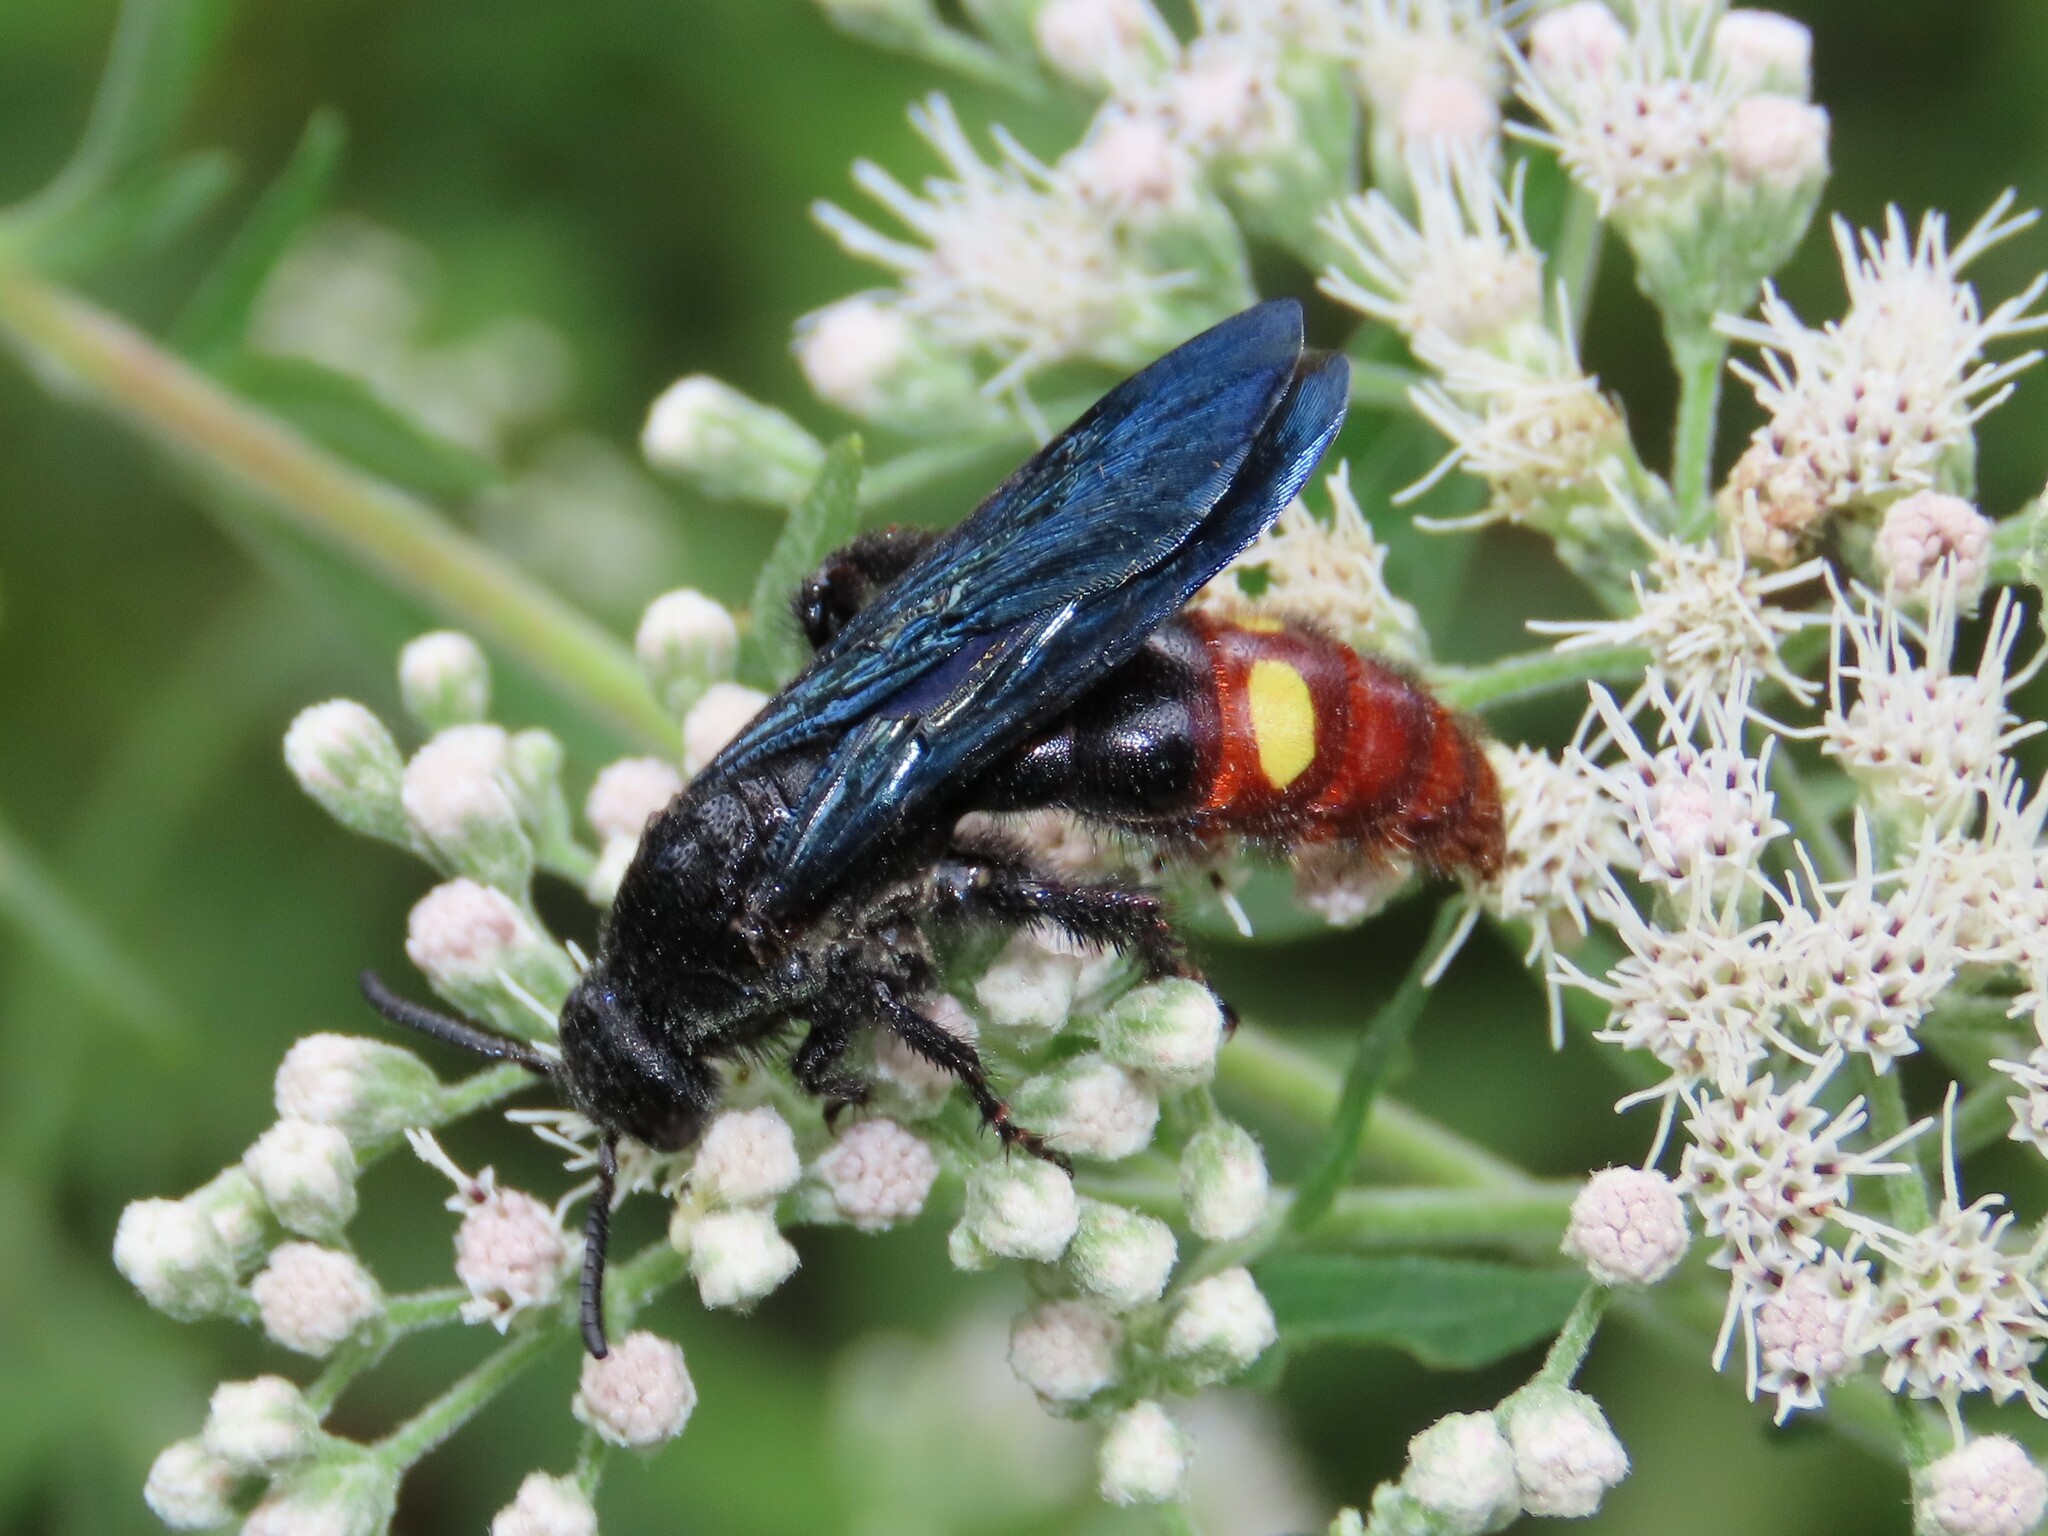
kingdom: Animalia
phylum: Arthropoda
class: Insecta
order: Hymenoptera
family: Scoliidae
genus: Scolia
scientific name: Scolia dubia
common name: Blue-winged scoliid wasp
